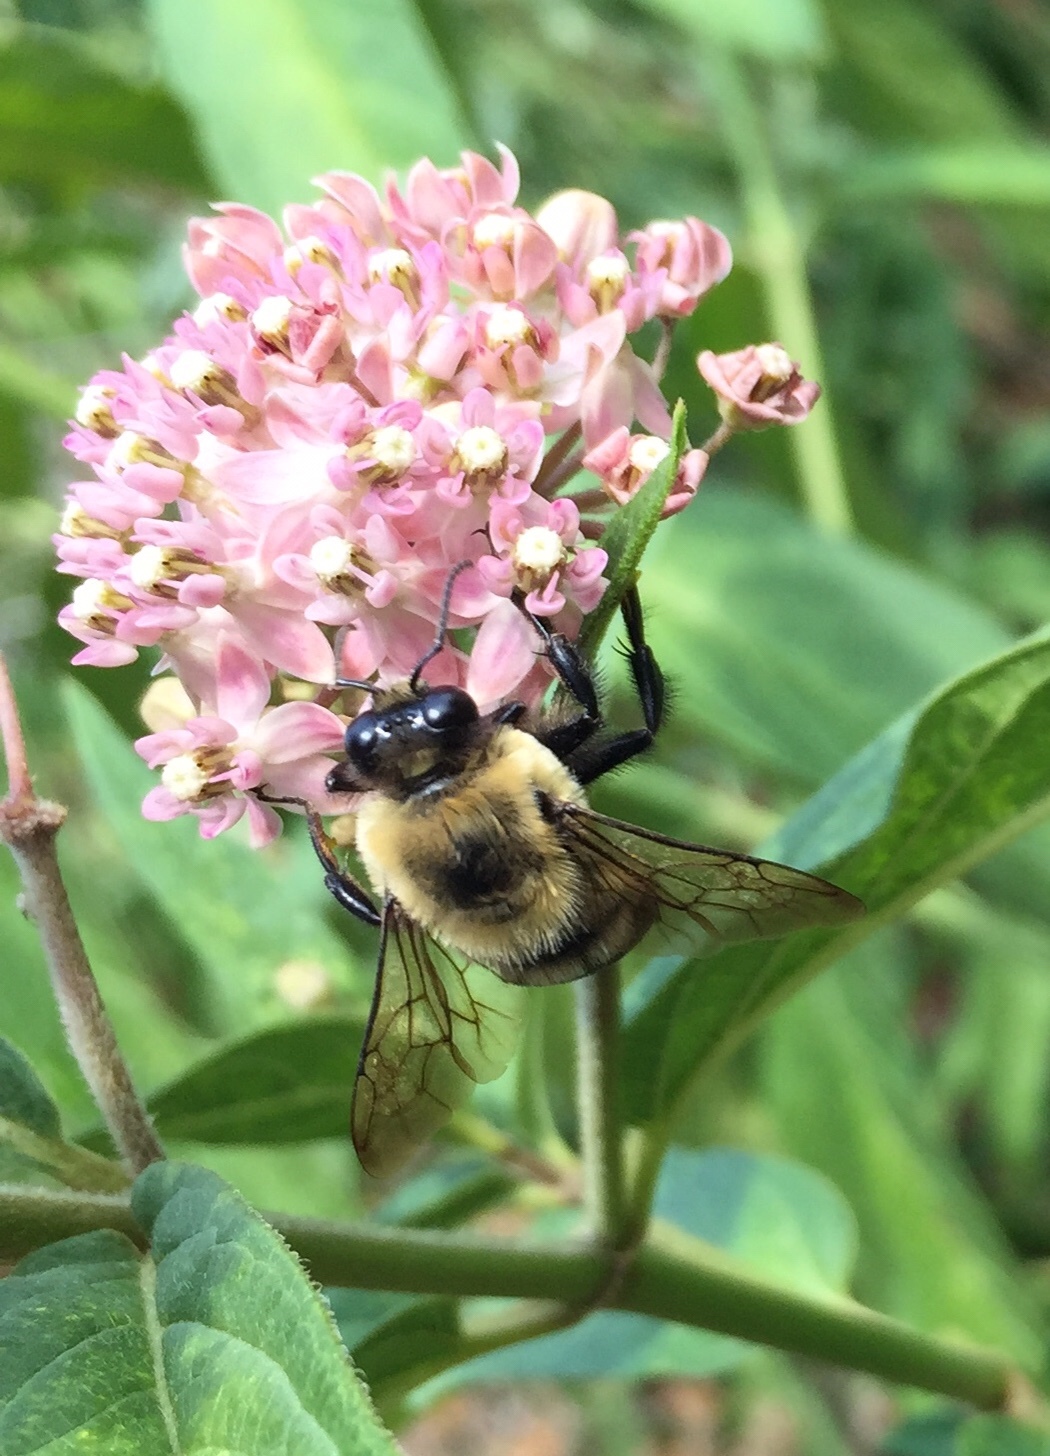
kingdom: Animalia
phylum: Arthropoda
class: Insecta
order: Hymenoptera
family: Apidae
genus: Bombus
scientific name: Bombus griseocollis
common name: Brown-belted bumble bee
